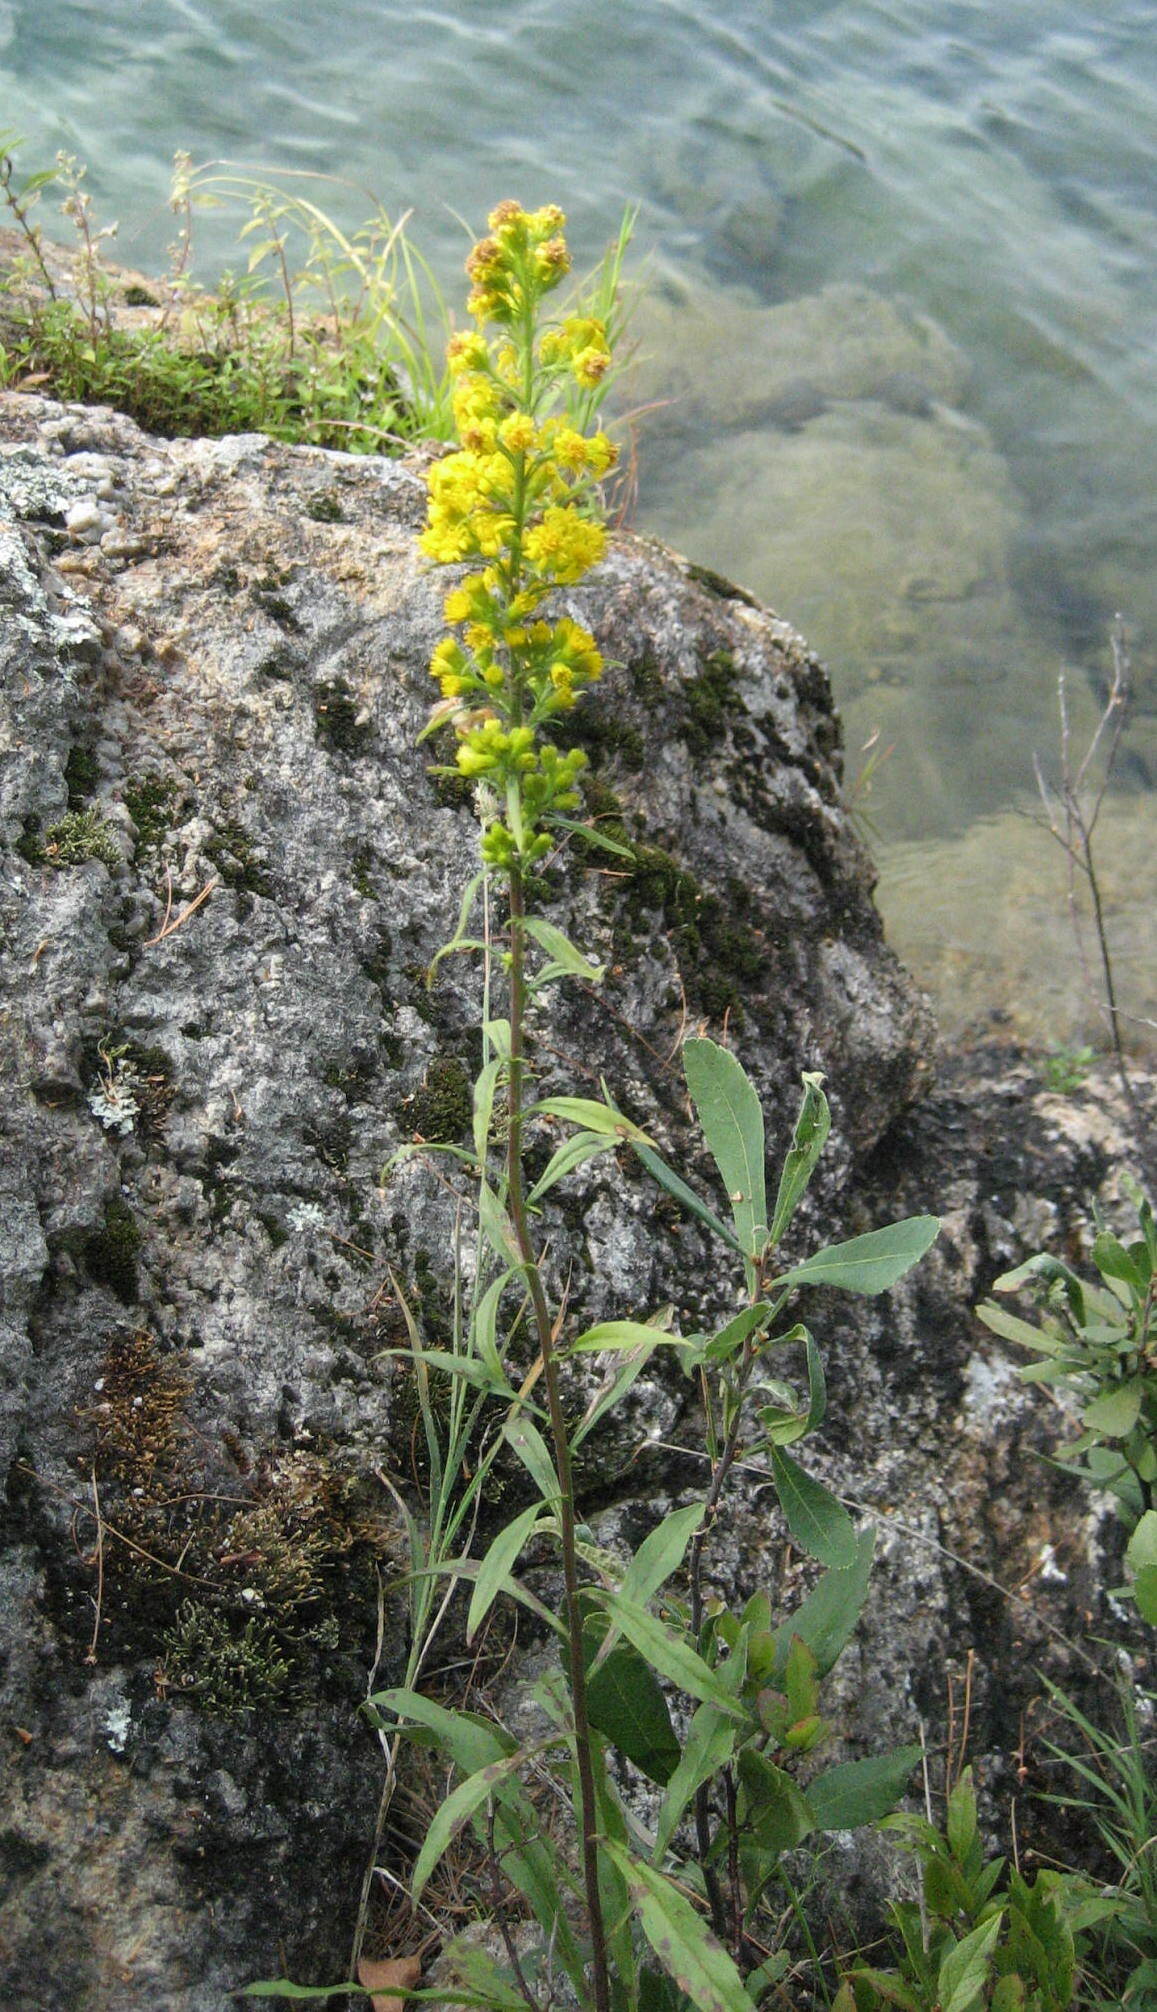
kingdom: Plantae
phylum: Tracheophyta
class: Magnoliopsida
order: Asterales
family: Asteraceae
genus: Solidago
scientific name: Solidago puberula
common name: Downy goldenrod
